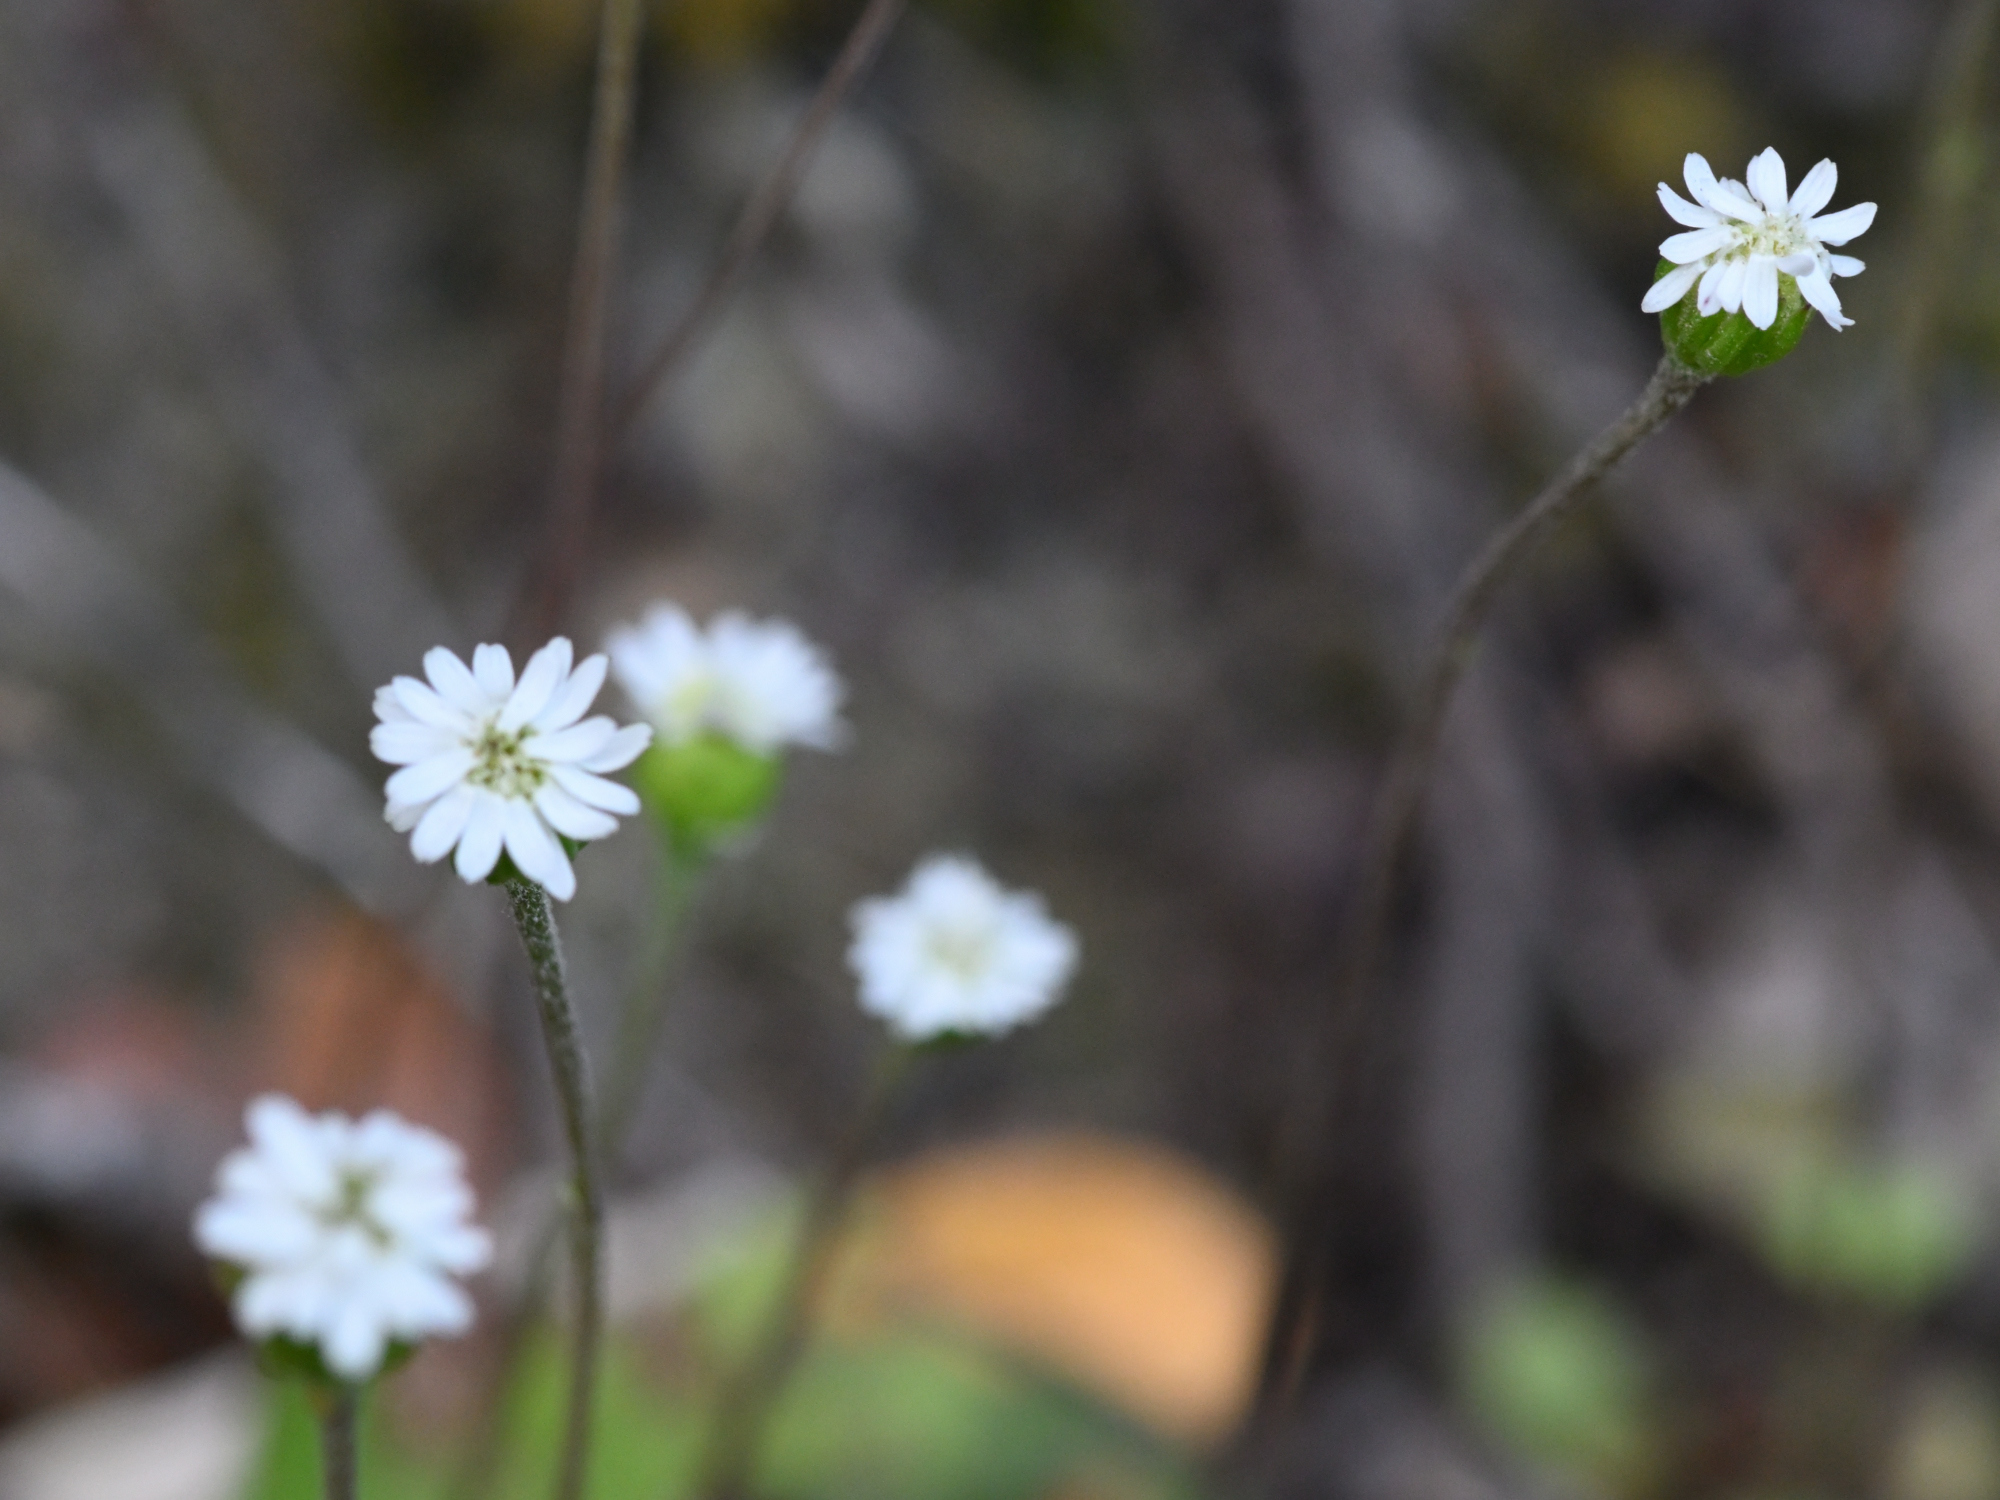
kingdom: Plantae
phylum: Tracheophyta
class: Magnoliopsida
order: Asterales
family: Asteraceae
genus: Lagenophora
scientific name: Lagenophora strangulata
